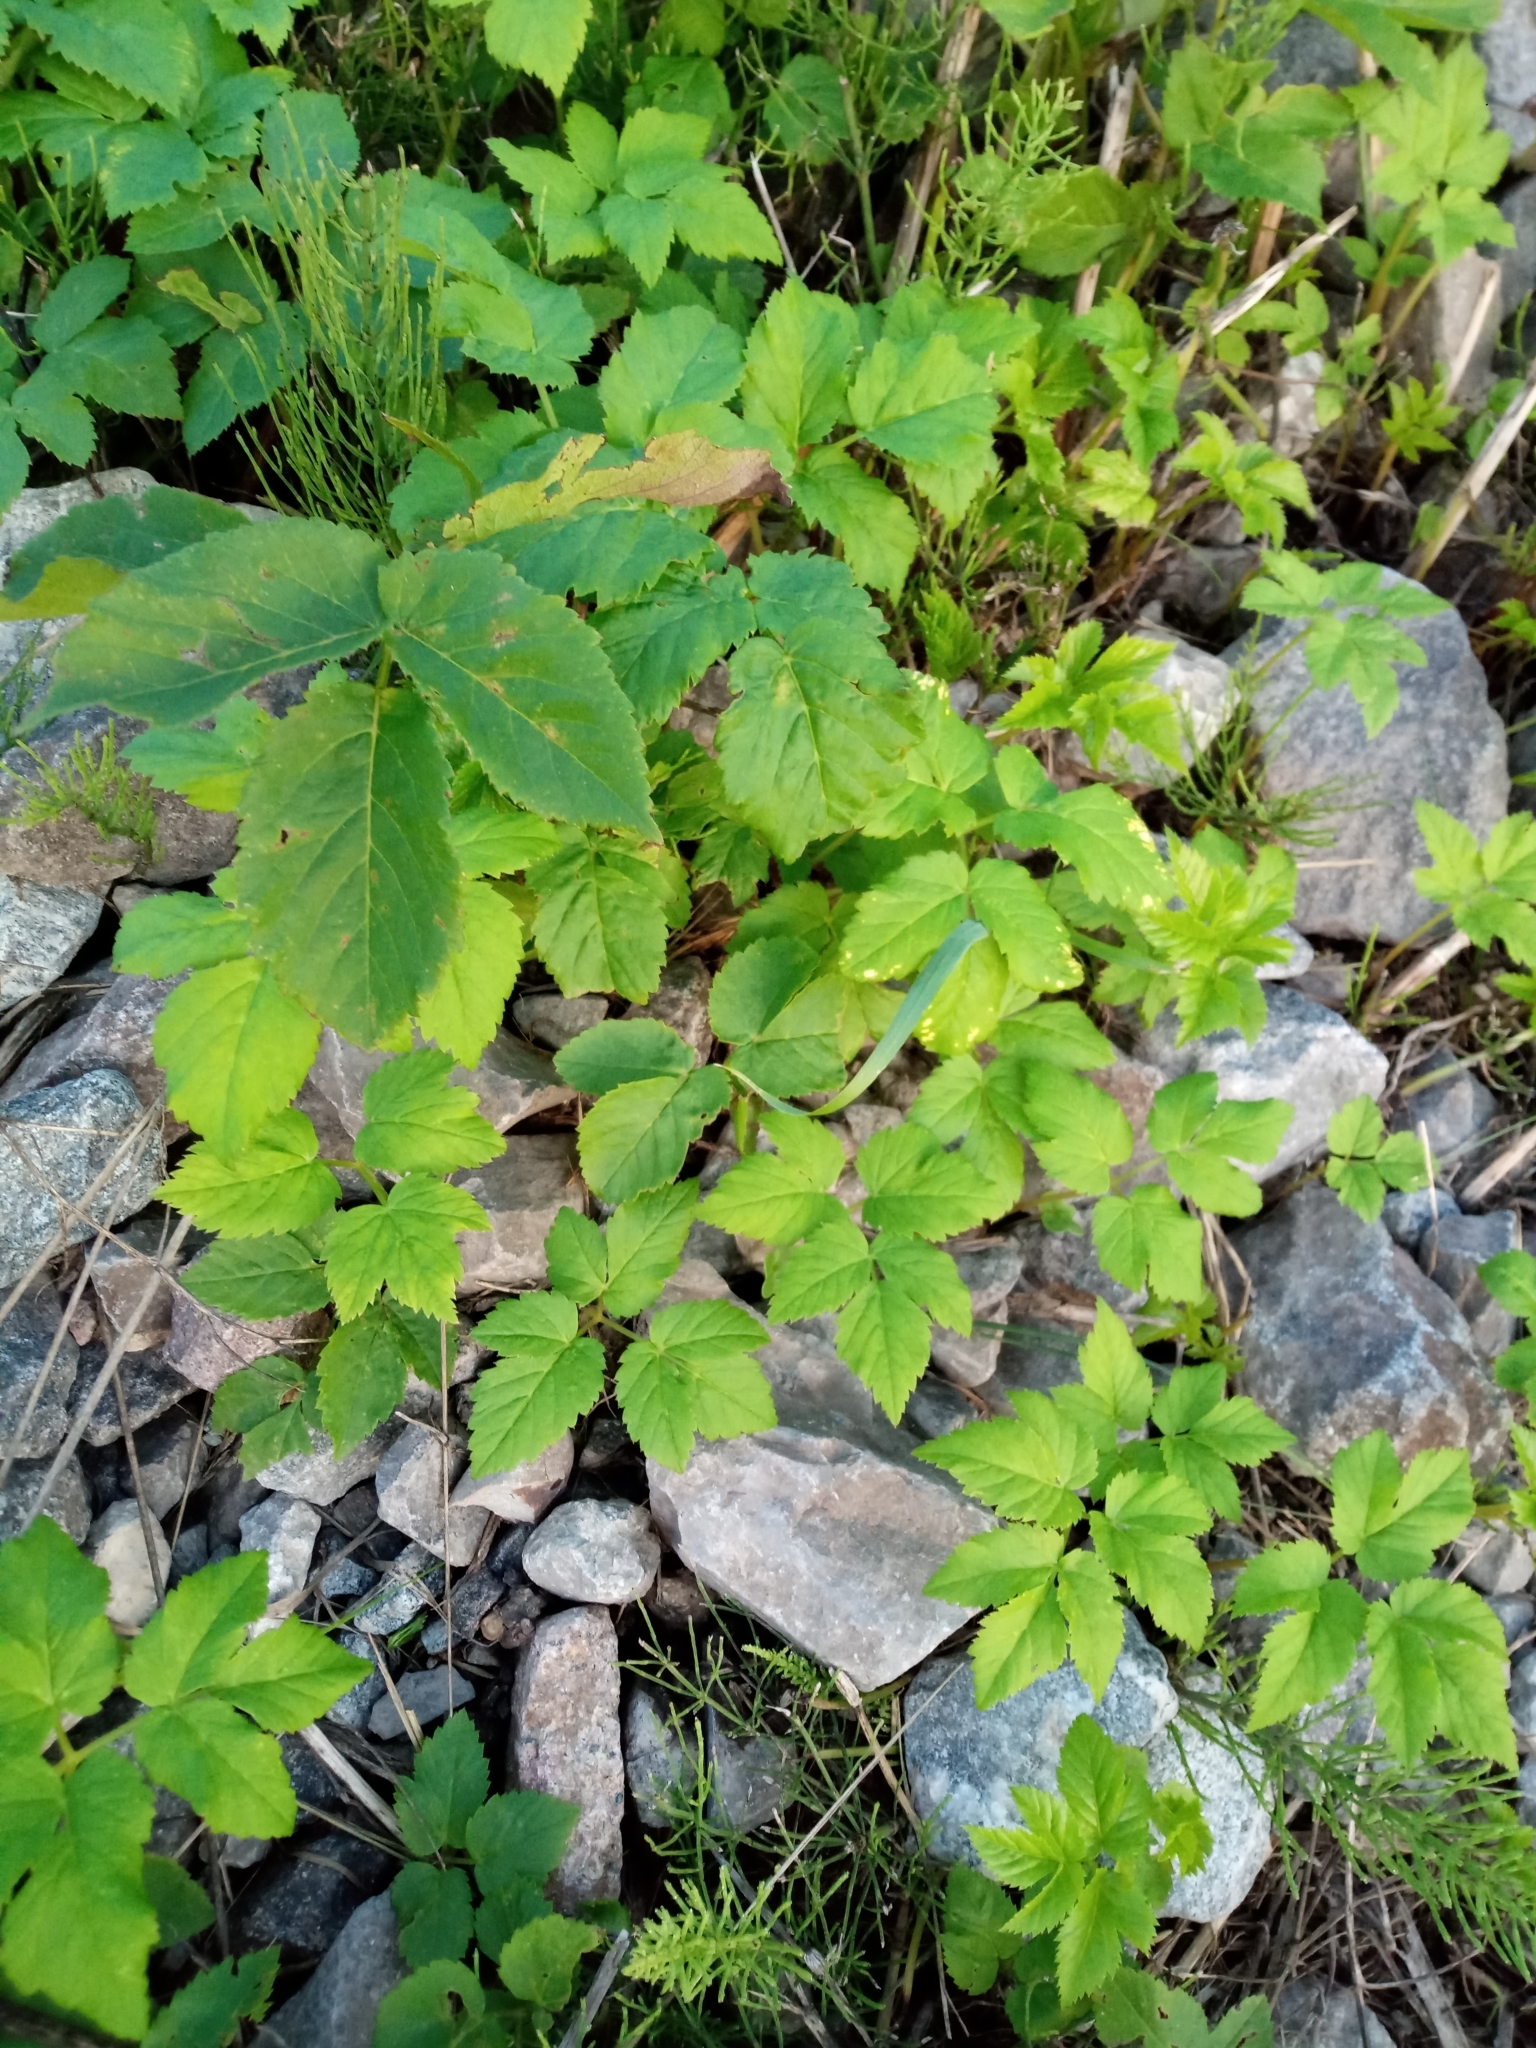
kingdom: Plantae
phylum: Tracheophyta
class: Magnoliopsida
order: Apiales
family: Apiaceae
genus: Aegopodium
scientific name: Aegopodium podagraria
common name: Ground-elder
